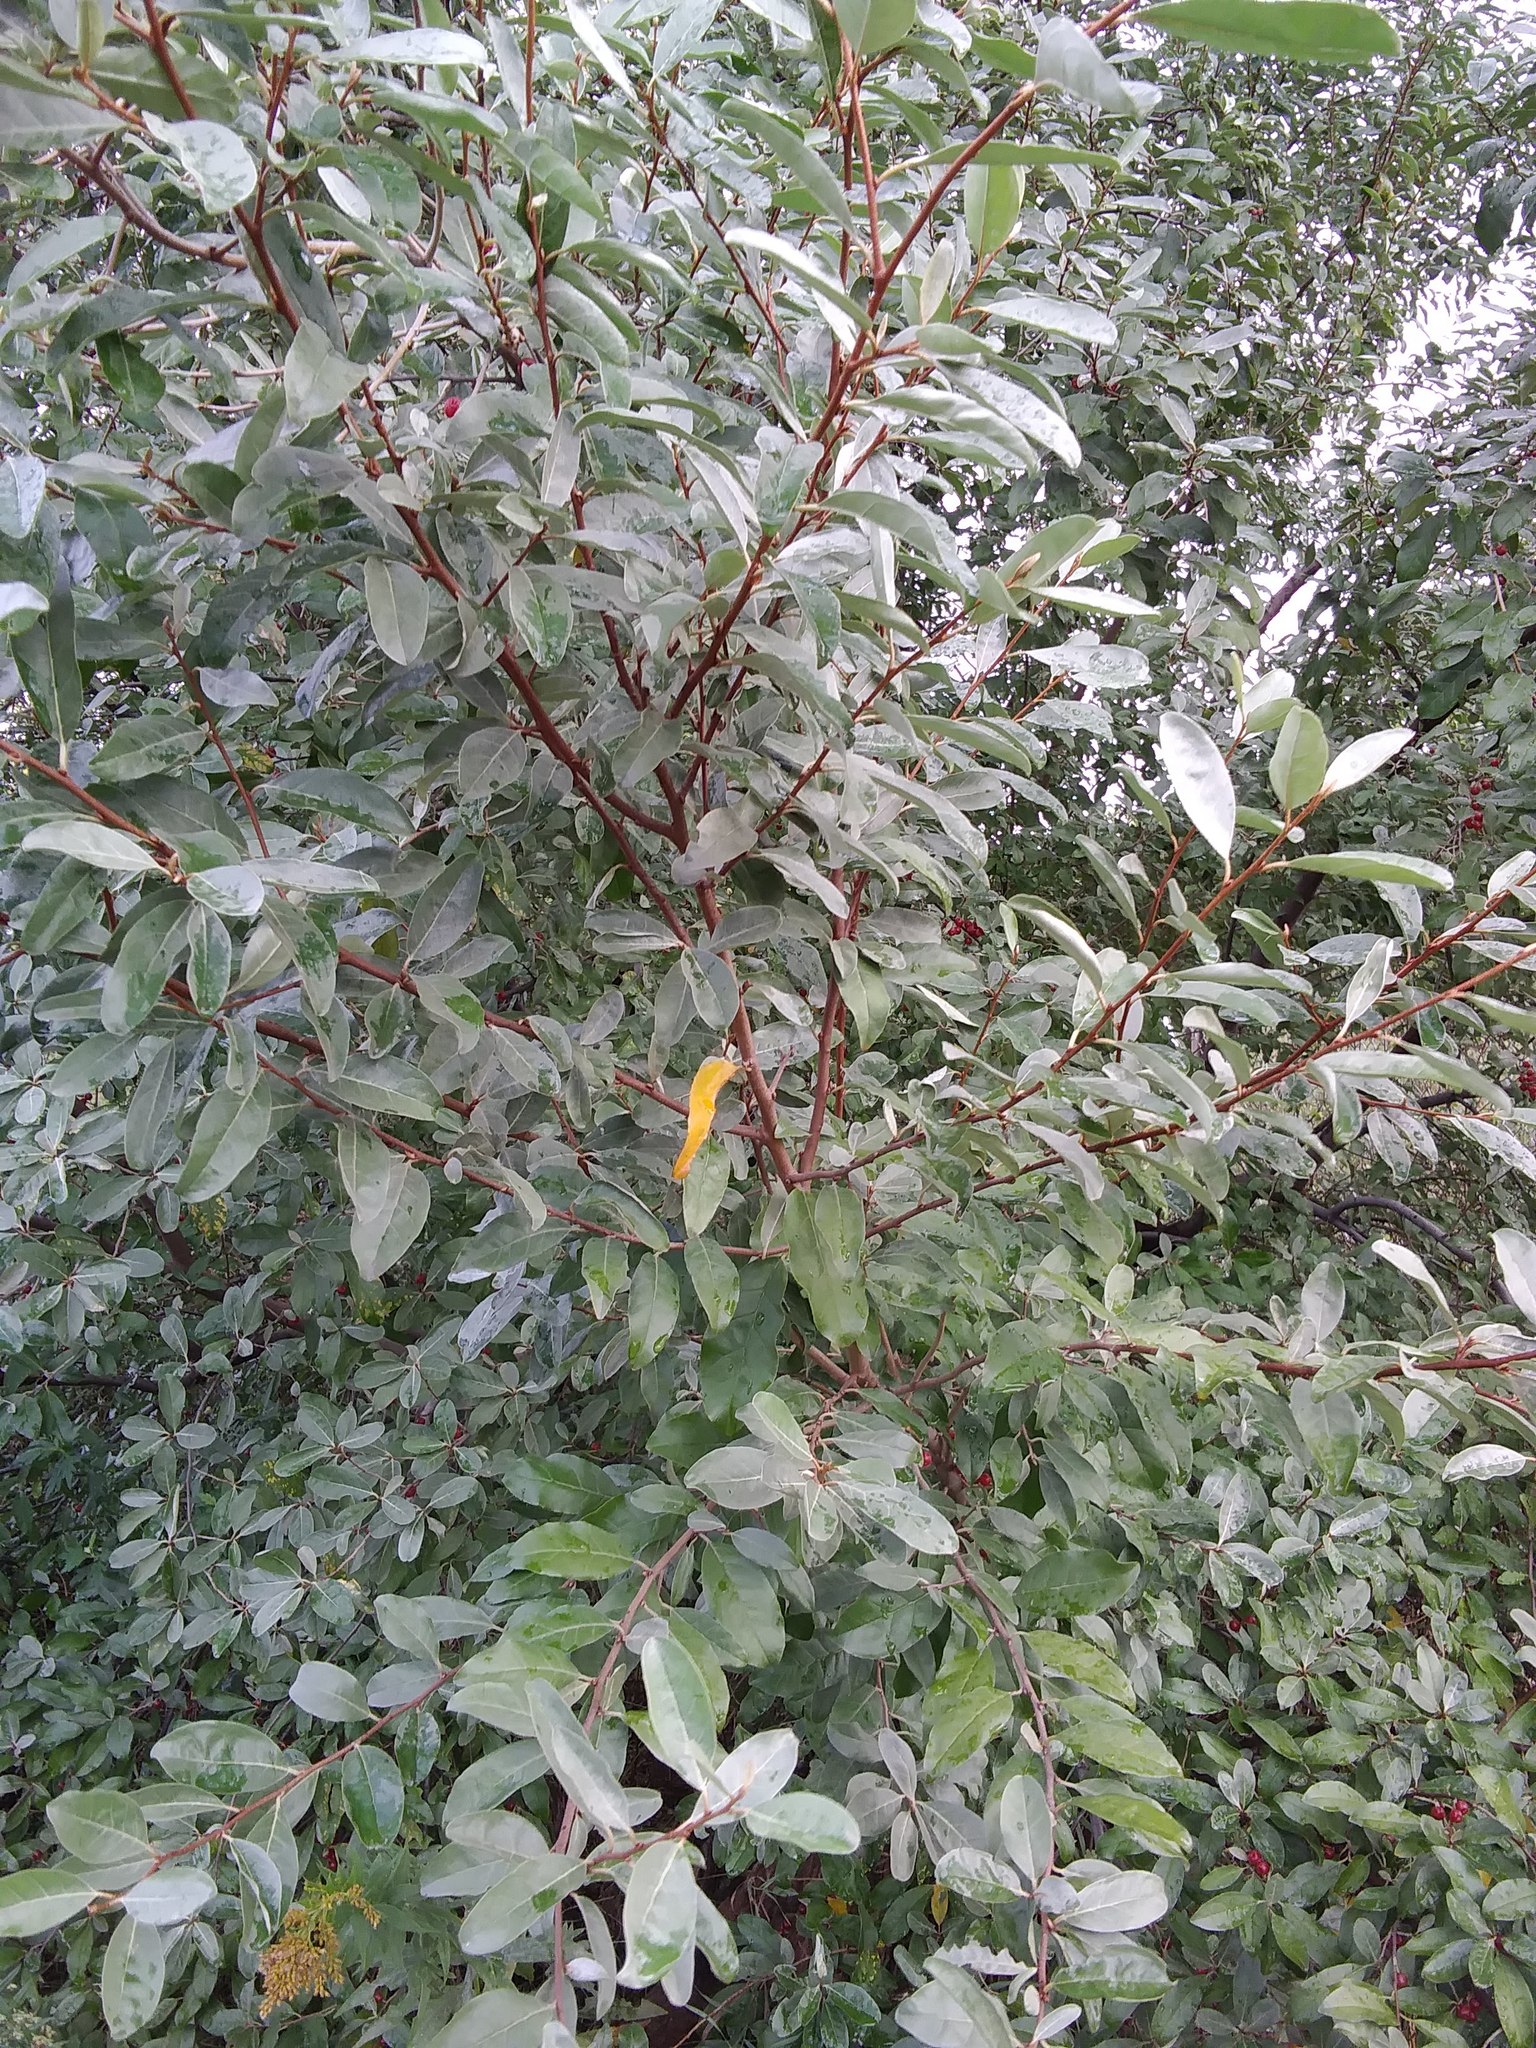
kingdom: Plantae
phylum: Tracheophyta
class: Magnoliopsida
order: Rosales
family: Elaeagnaceae
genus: Elaeagnus
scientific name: Elaeagnus umbellata
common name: Autumn olive
